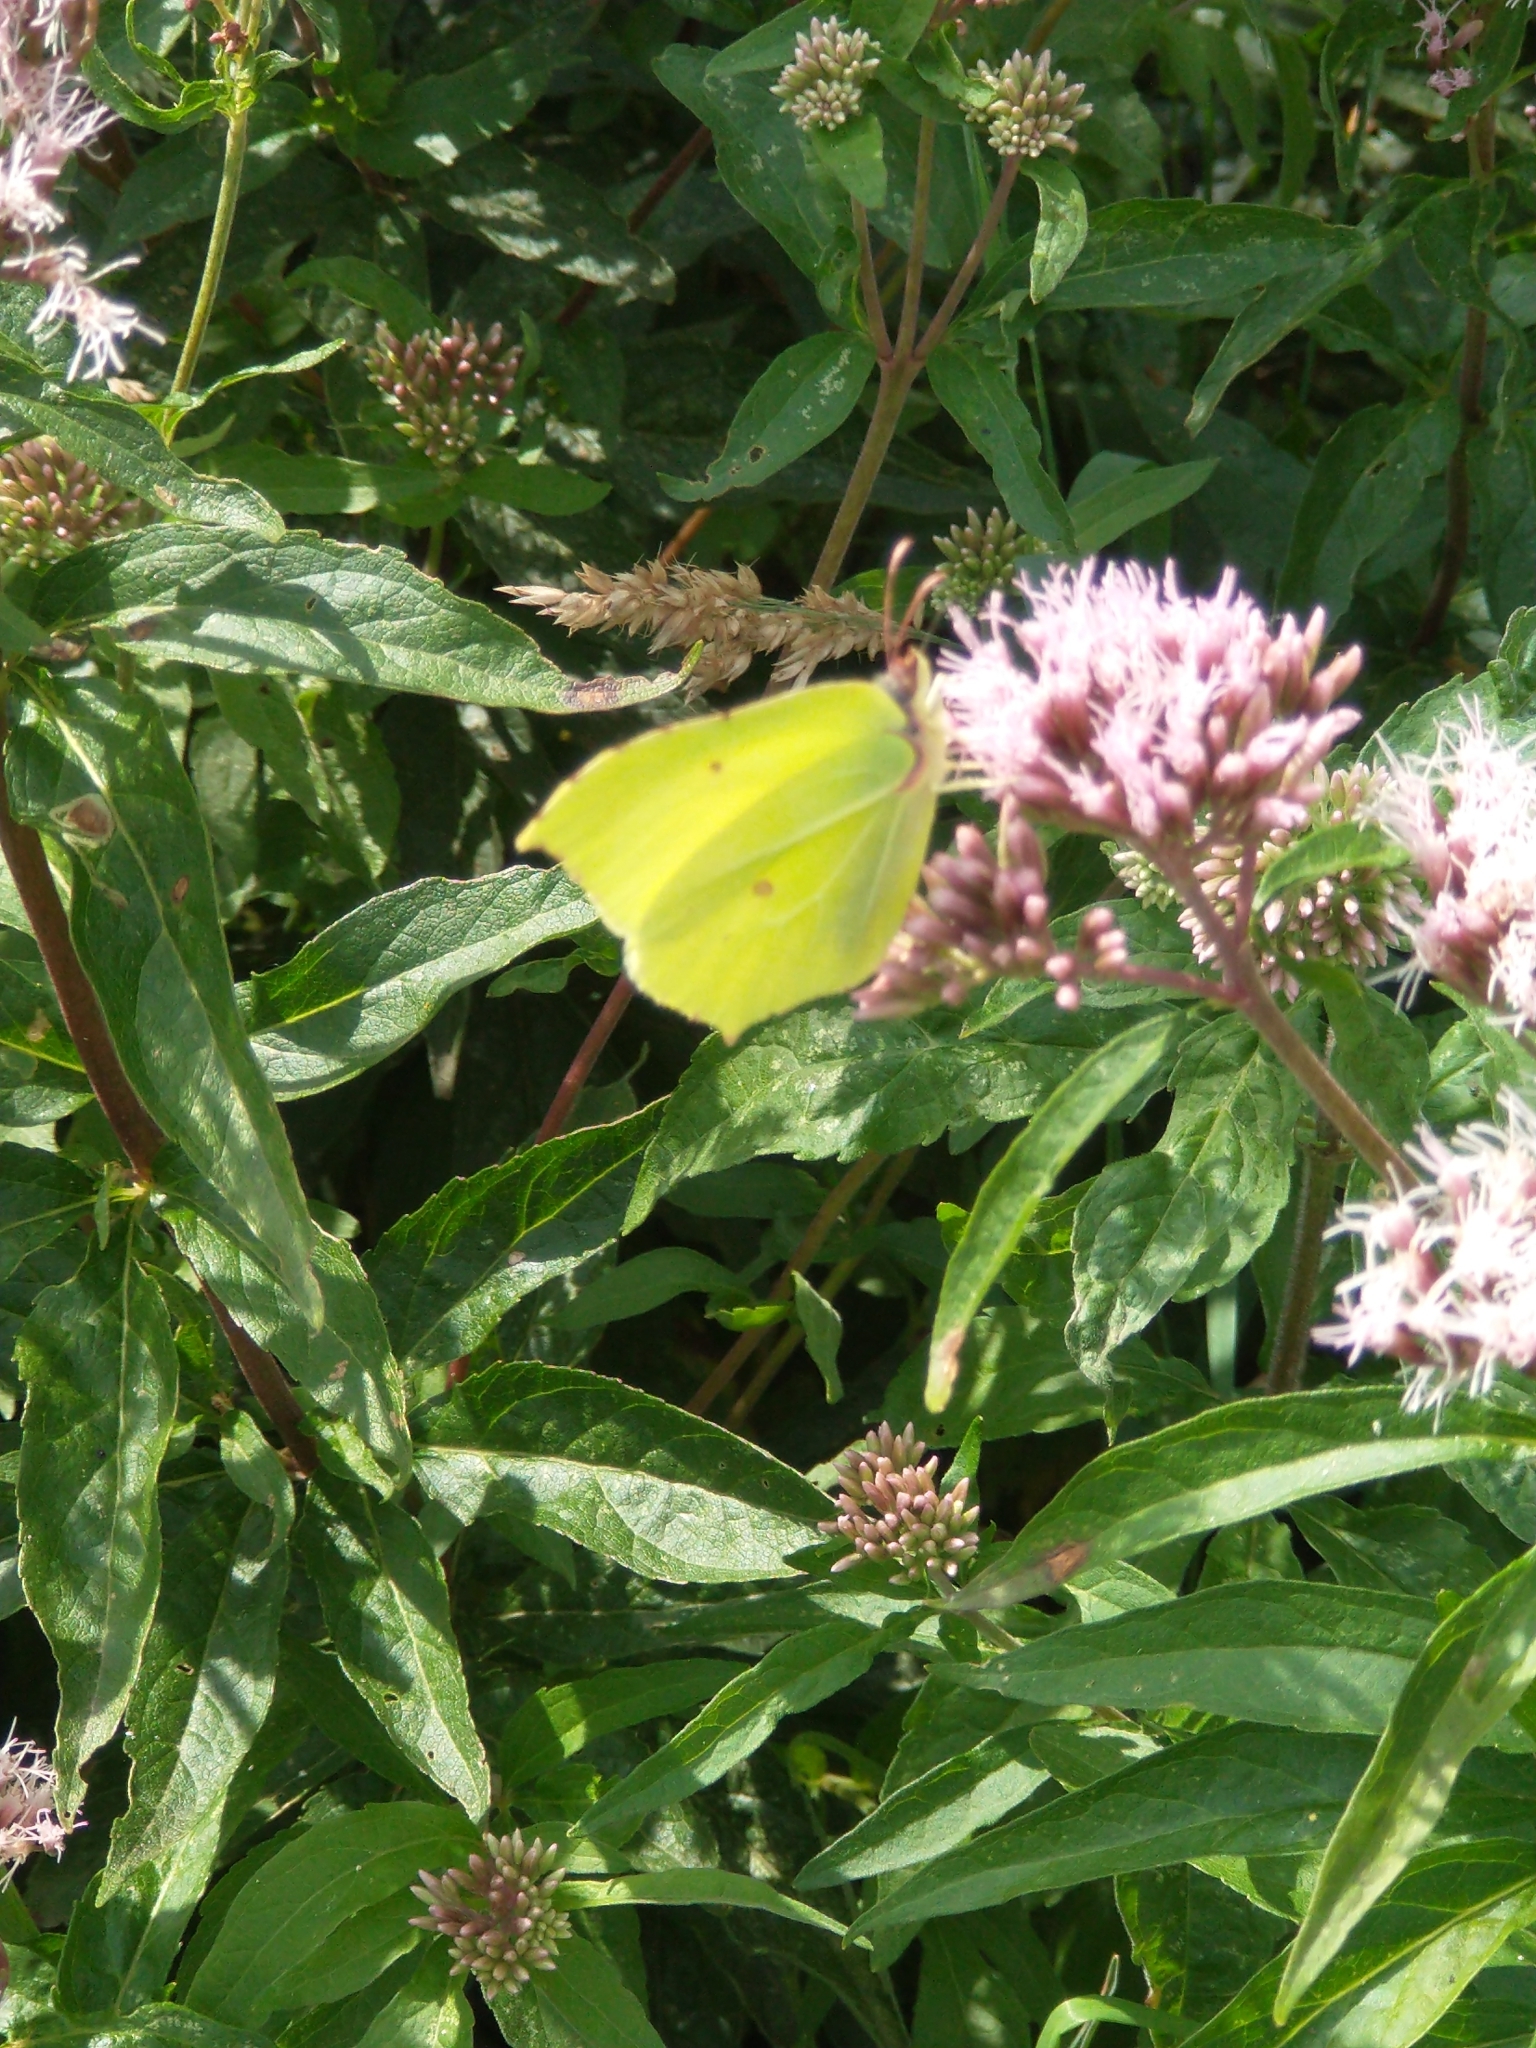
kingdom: Animalia
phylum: Arthropoda
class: Insecta
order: Lepidoptera
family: Pieridae
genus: Gonepteryx
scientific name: Gonepteryx rhamni
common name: Brimstone
